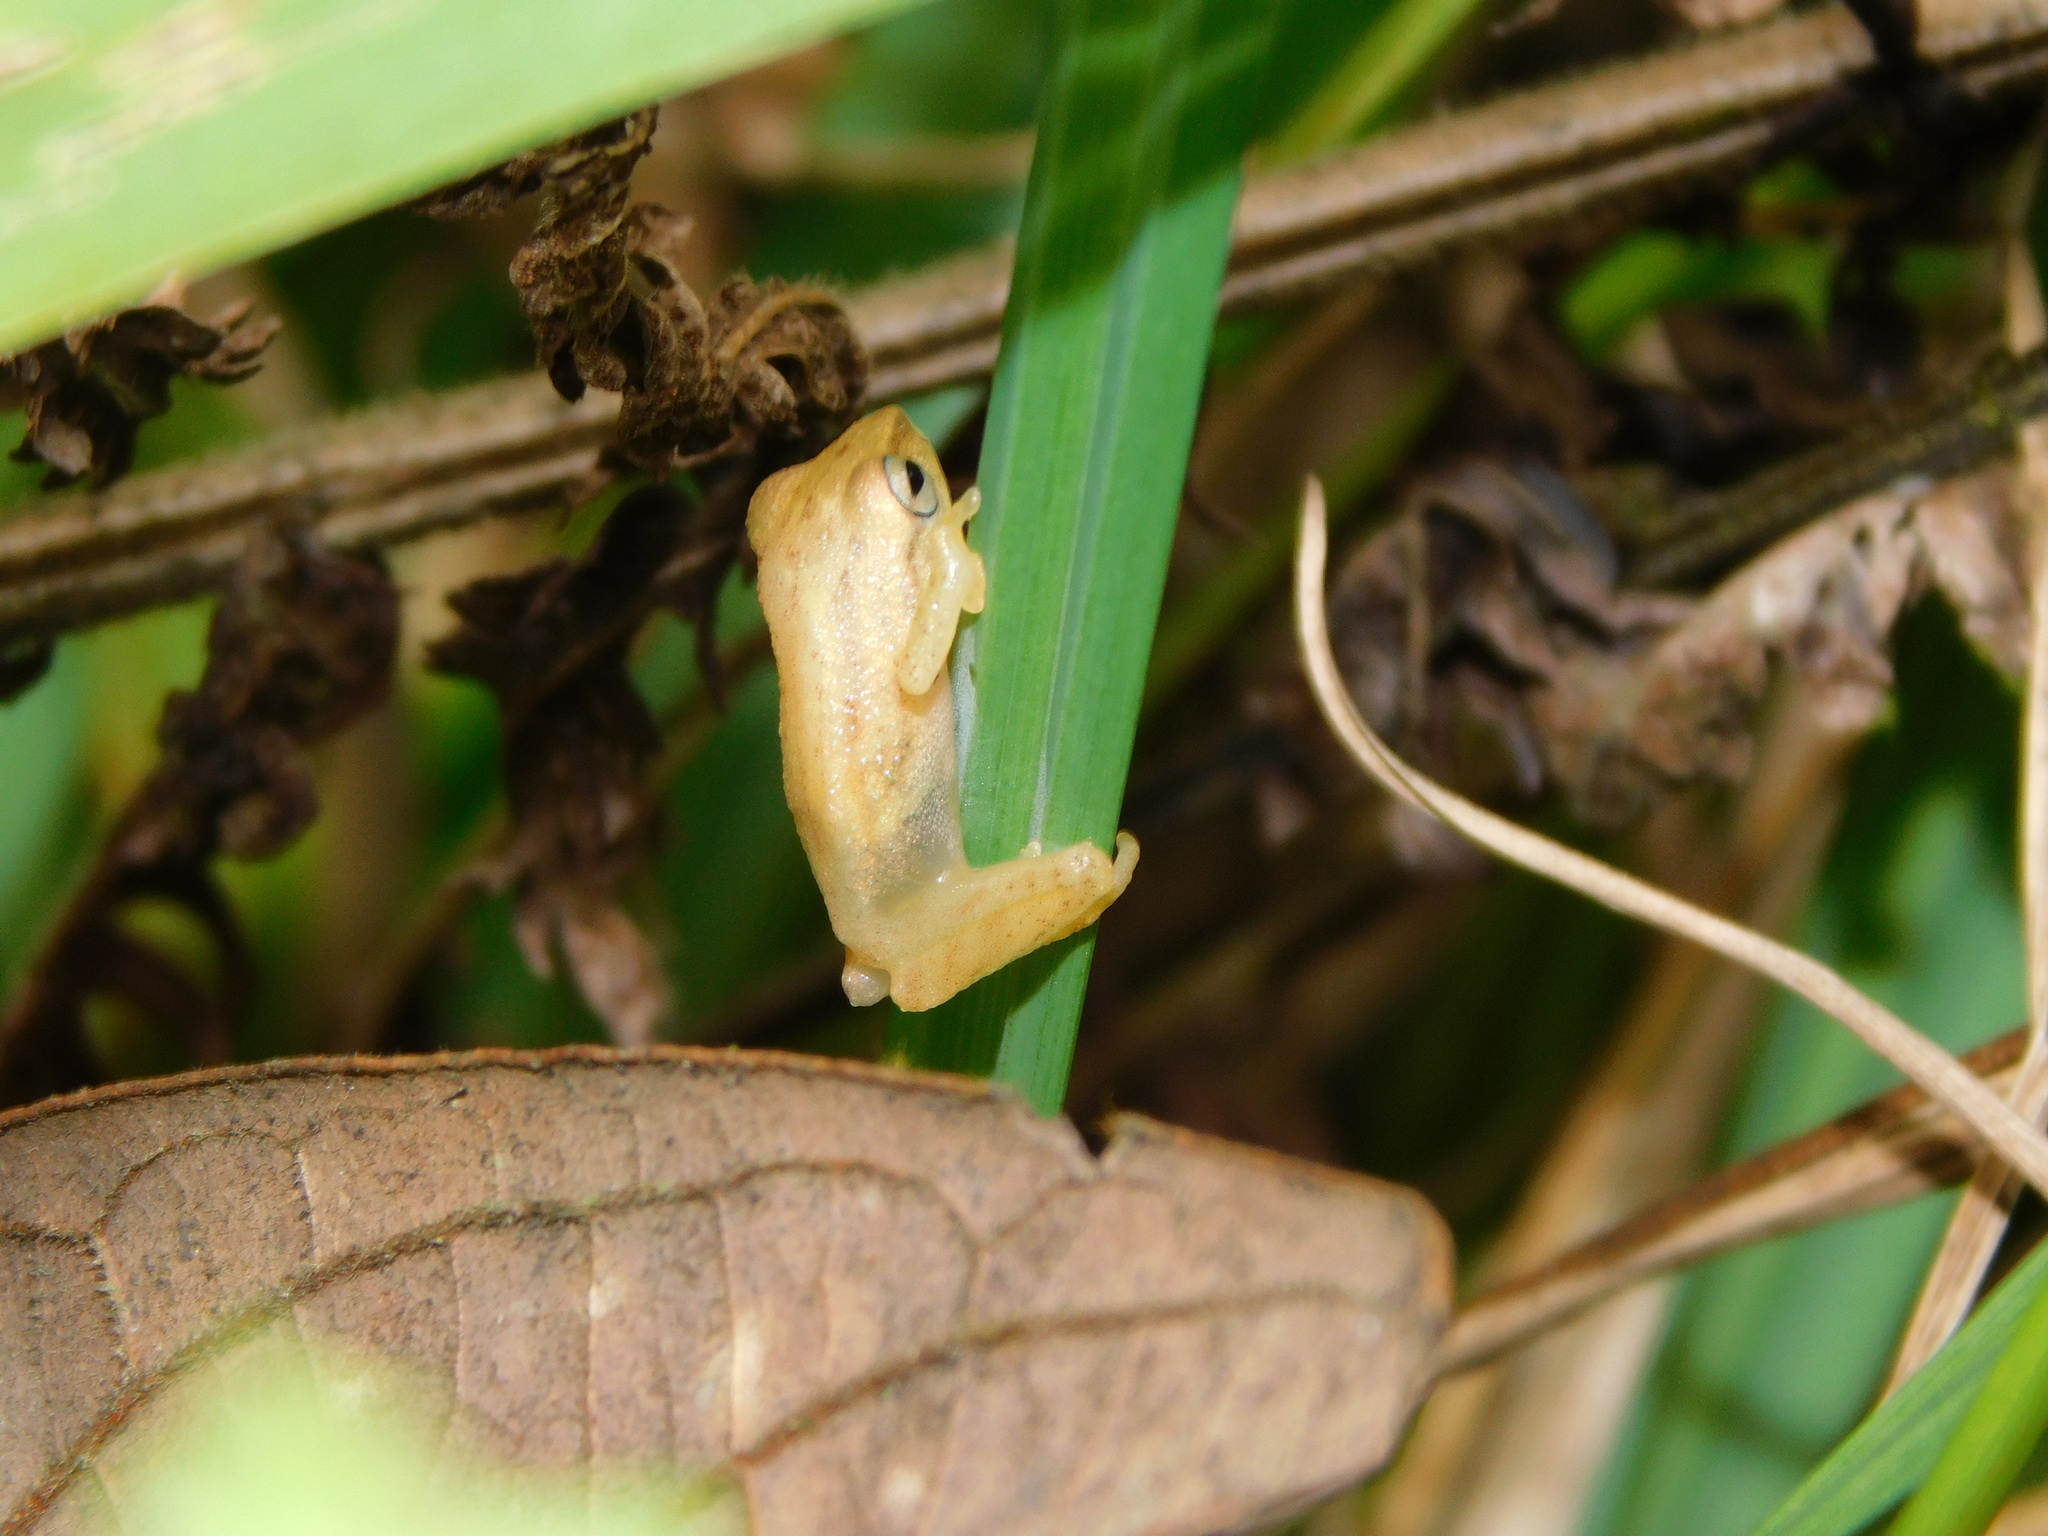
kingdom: Animalia
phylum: Chordata
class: Amphibia
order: Anura
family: Rhacophoridae
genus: Raorchestes
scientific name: Raorchestes luteolus
